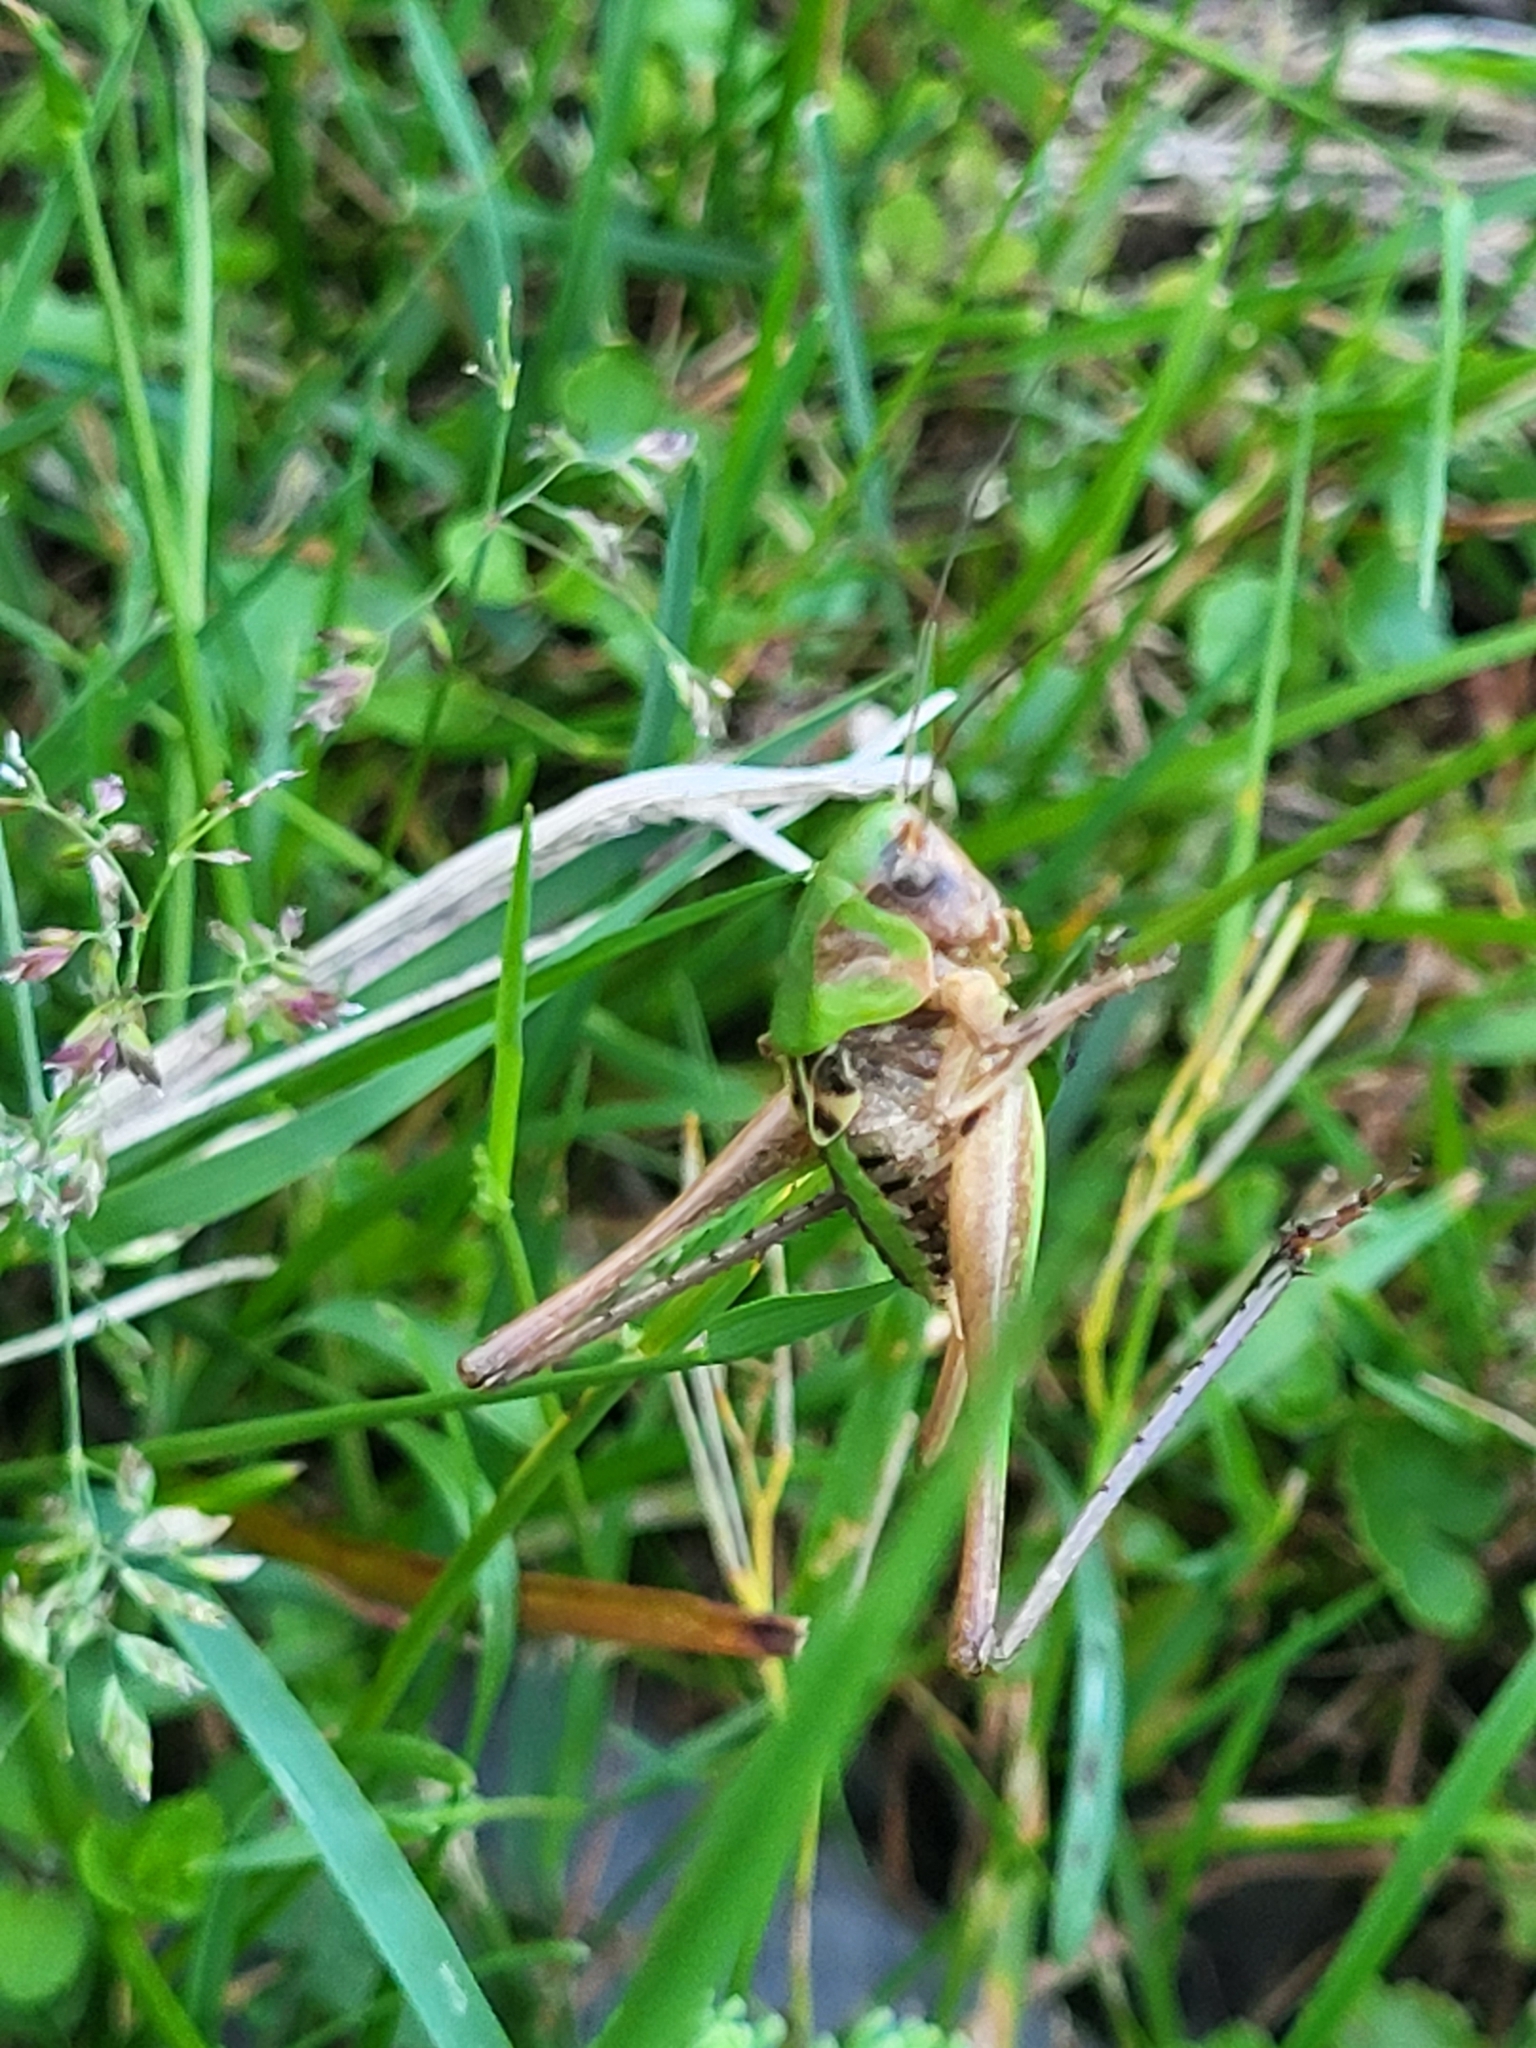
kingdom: Animalia
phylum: Arthropoda
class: Insecta
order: Orthoptera
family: Tettigoniidae
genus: Decticus
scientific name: Decticus verrucivorus
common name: Wart-biter
